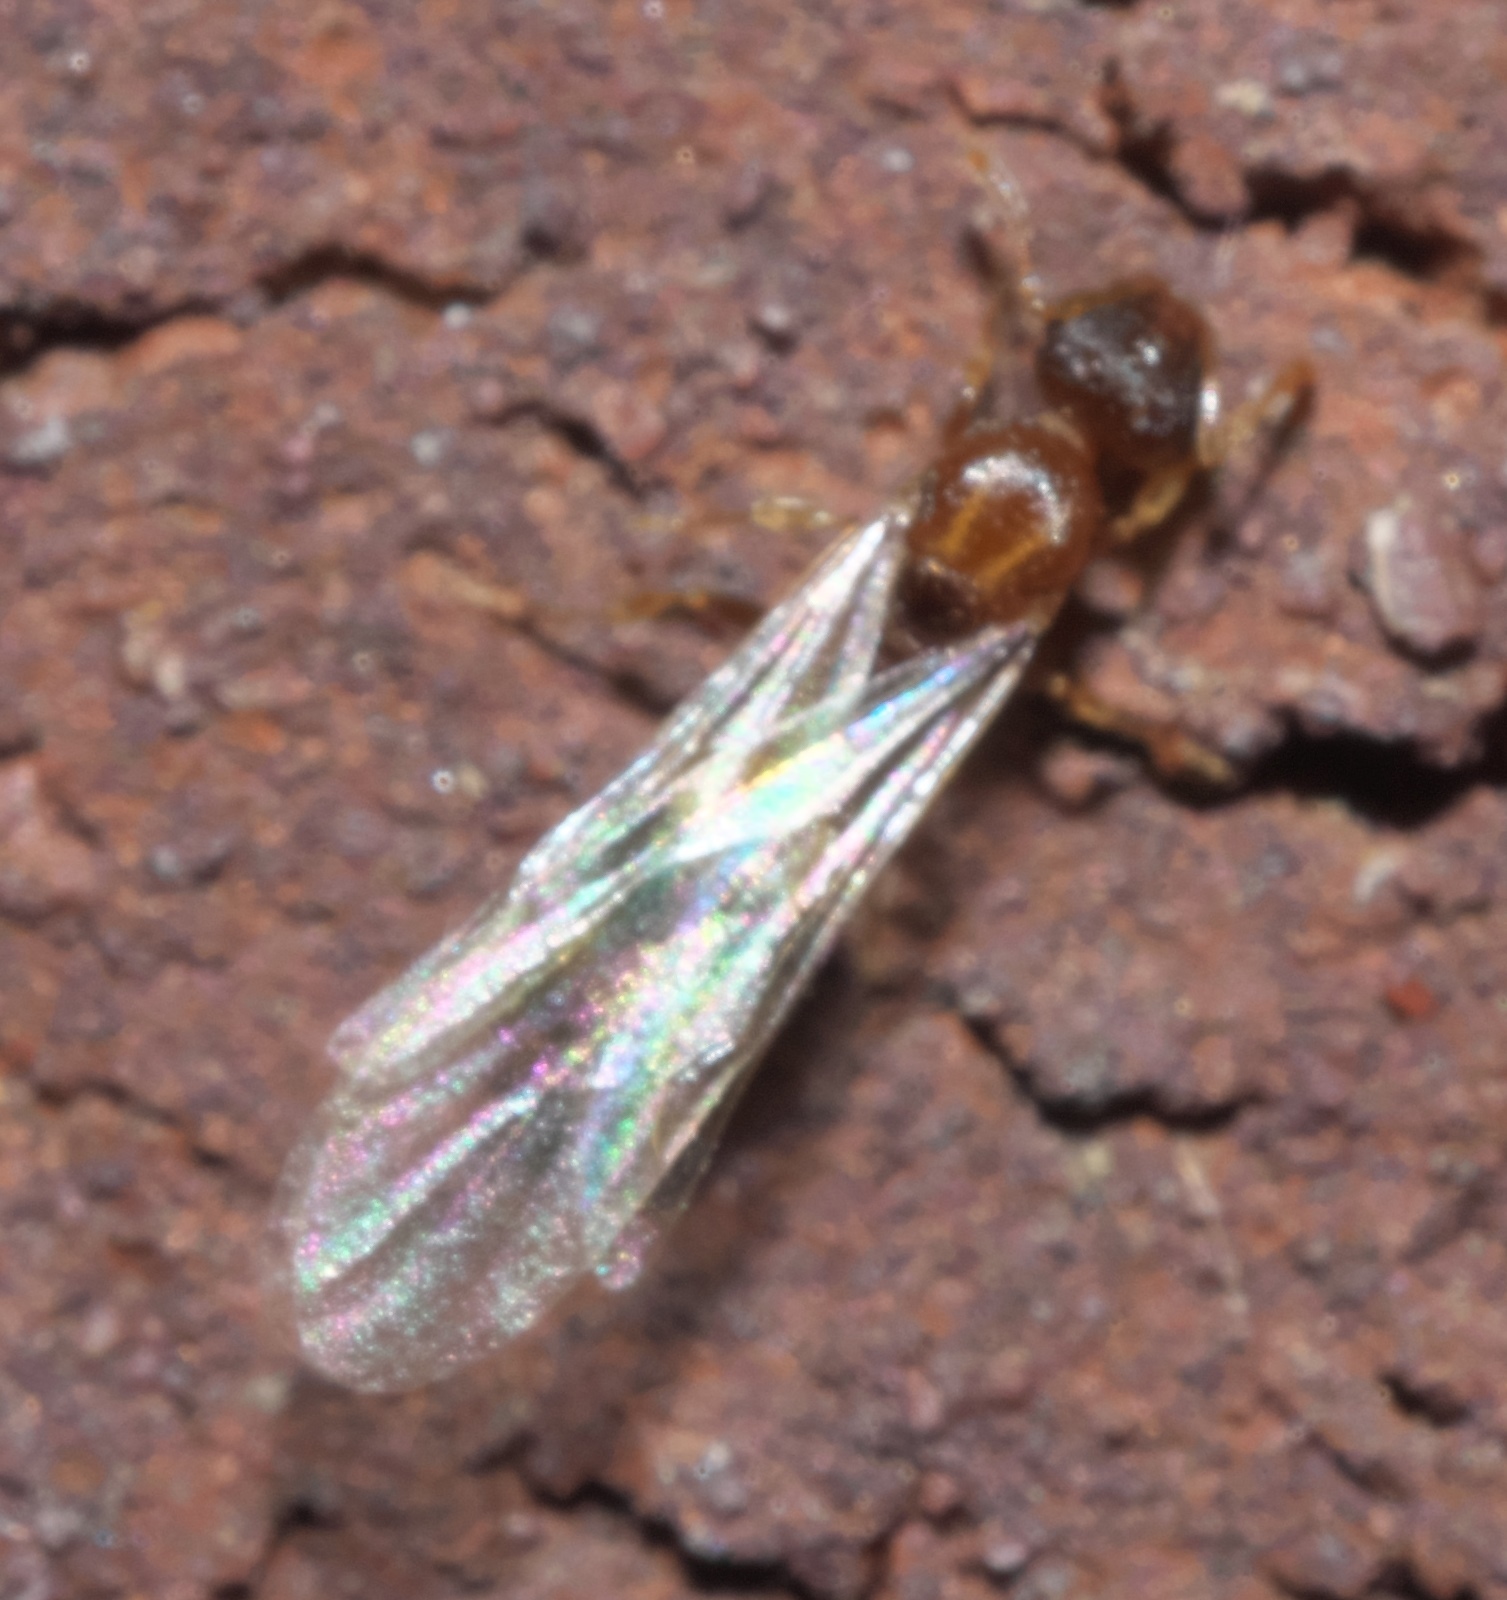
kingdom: Animalia
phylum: Arthropoda
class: Insecta
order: Hymenoptera
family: Formicidae
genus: Temnothorax
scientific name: Temnothorax curvispinosus
